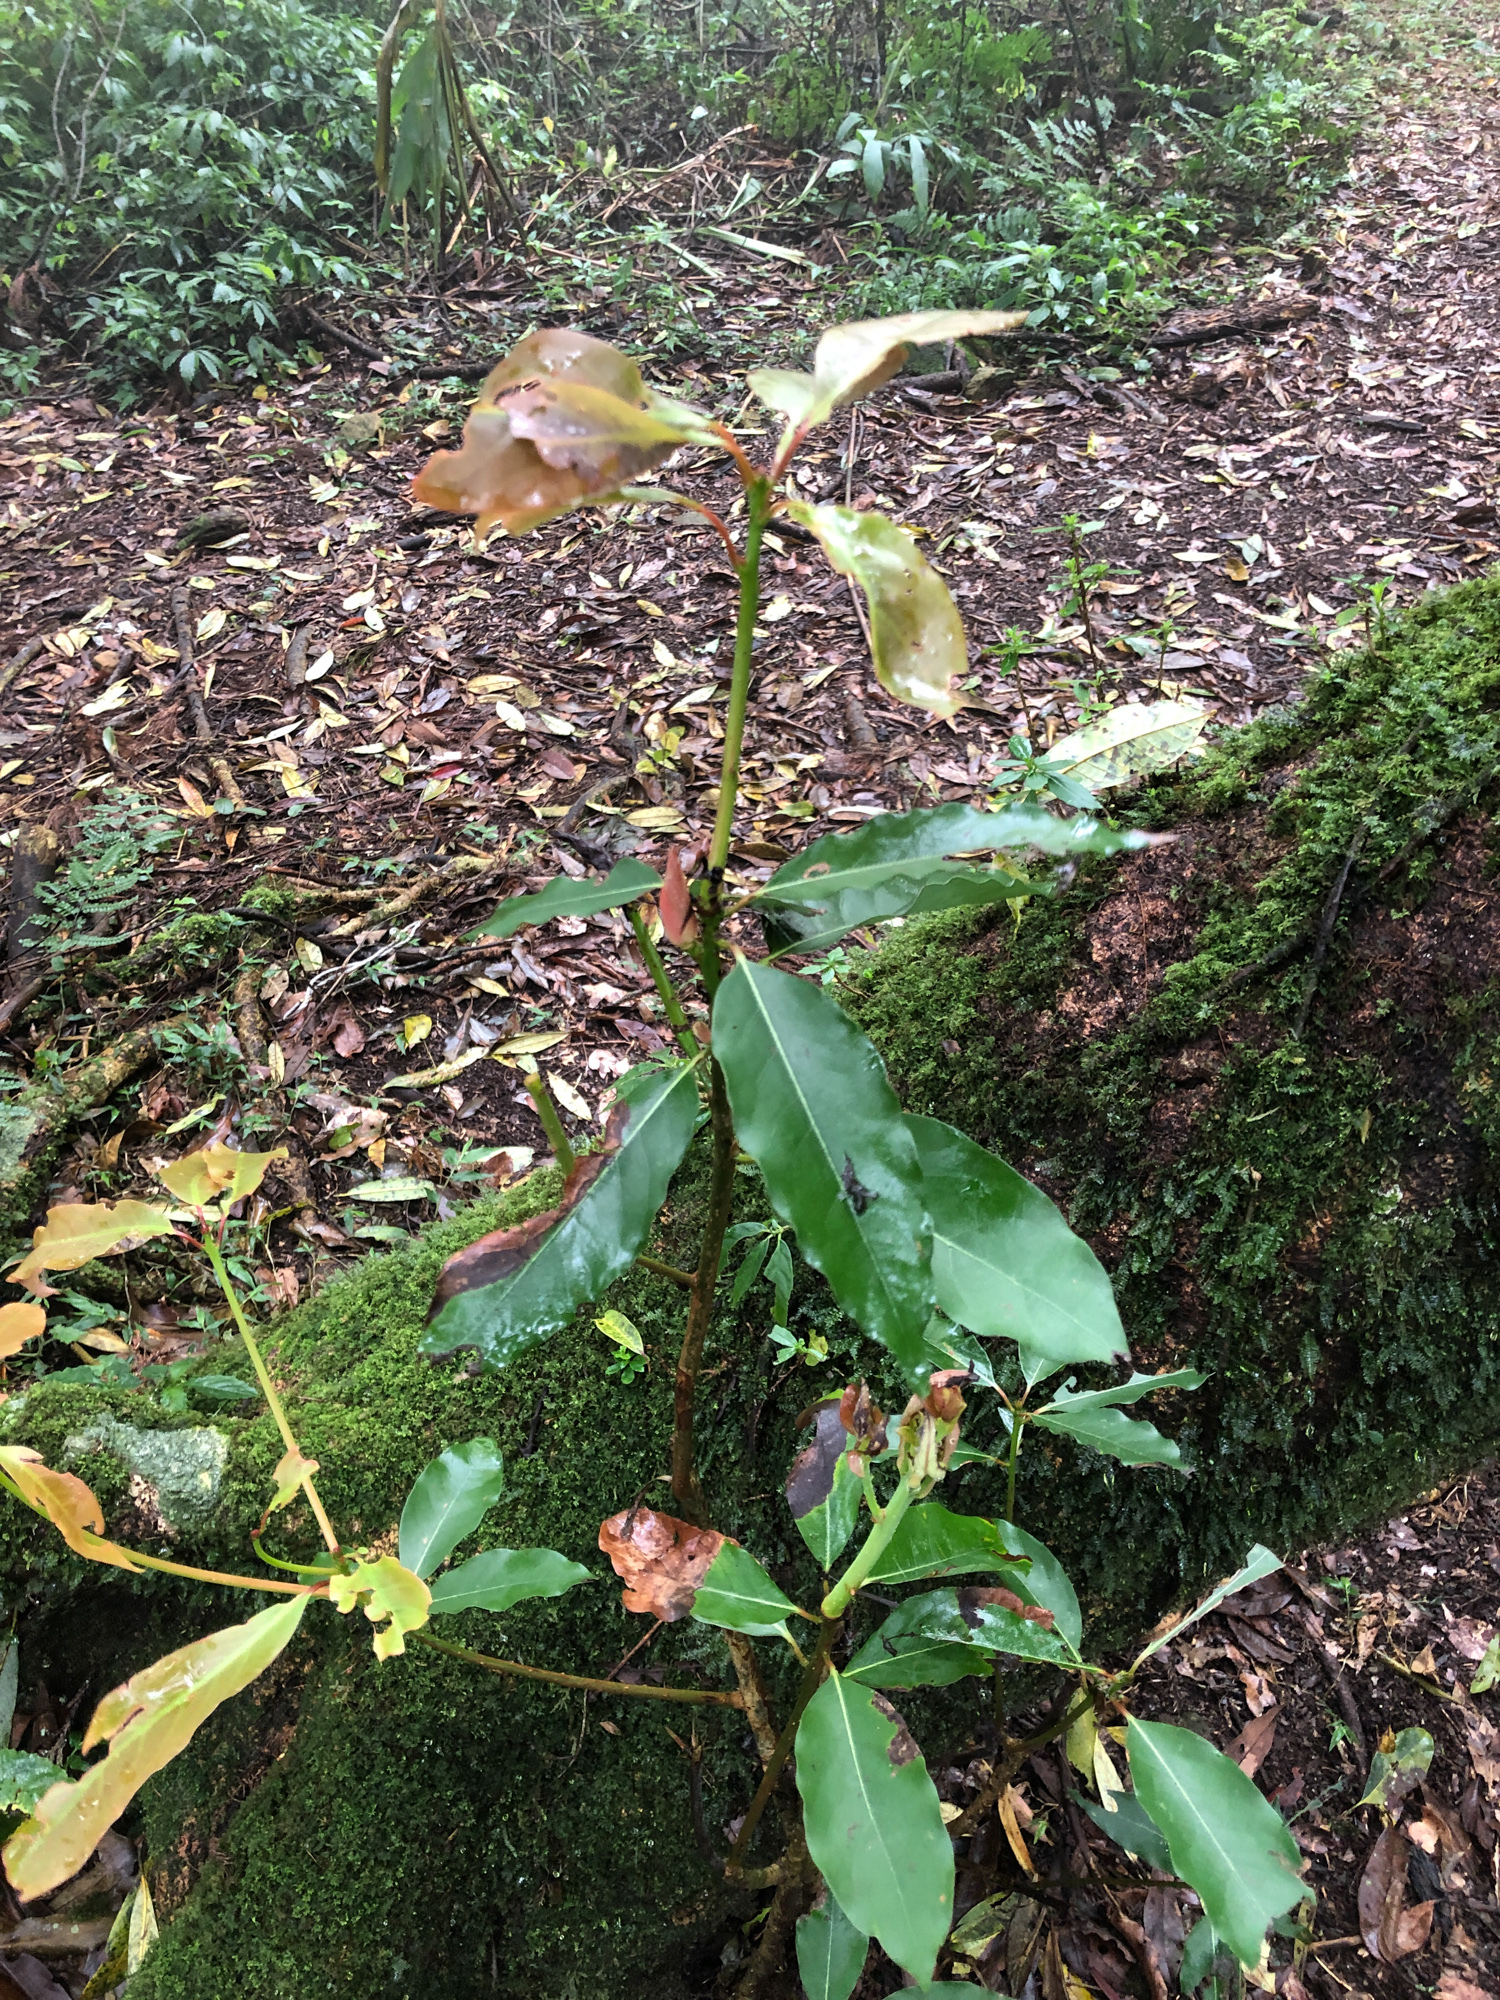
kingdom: Plantae
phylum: Tracheophyta
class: Magnoliopsida
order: Laurales
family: Lauraceae
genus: Machilus
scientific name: Machilus thunbergii
